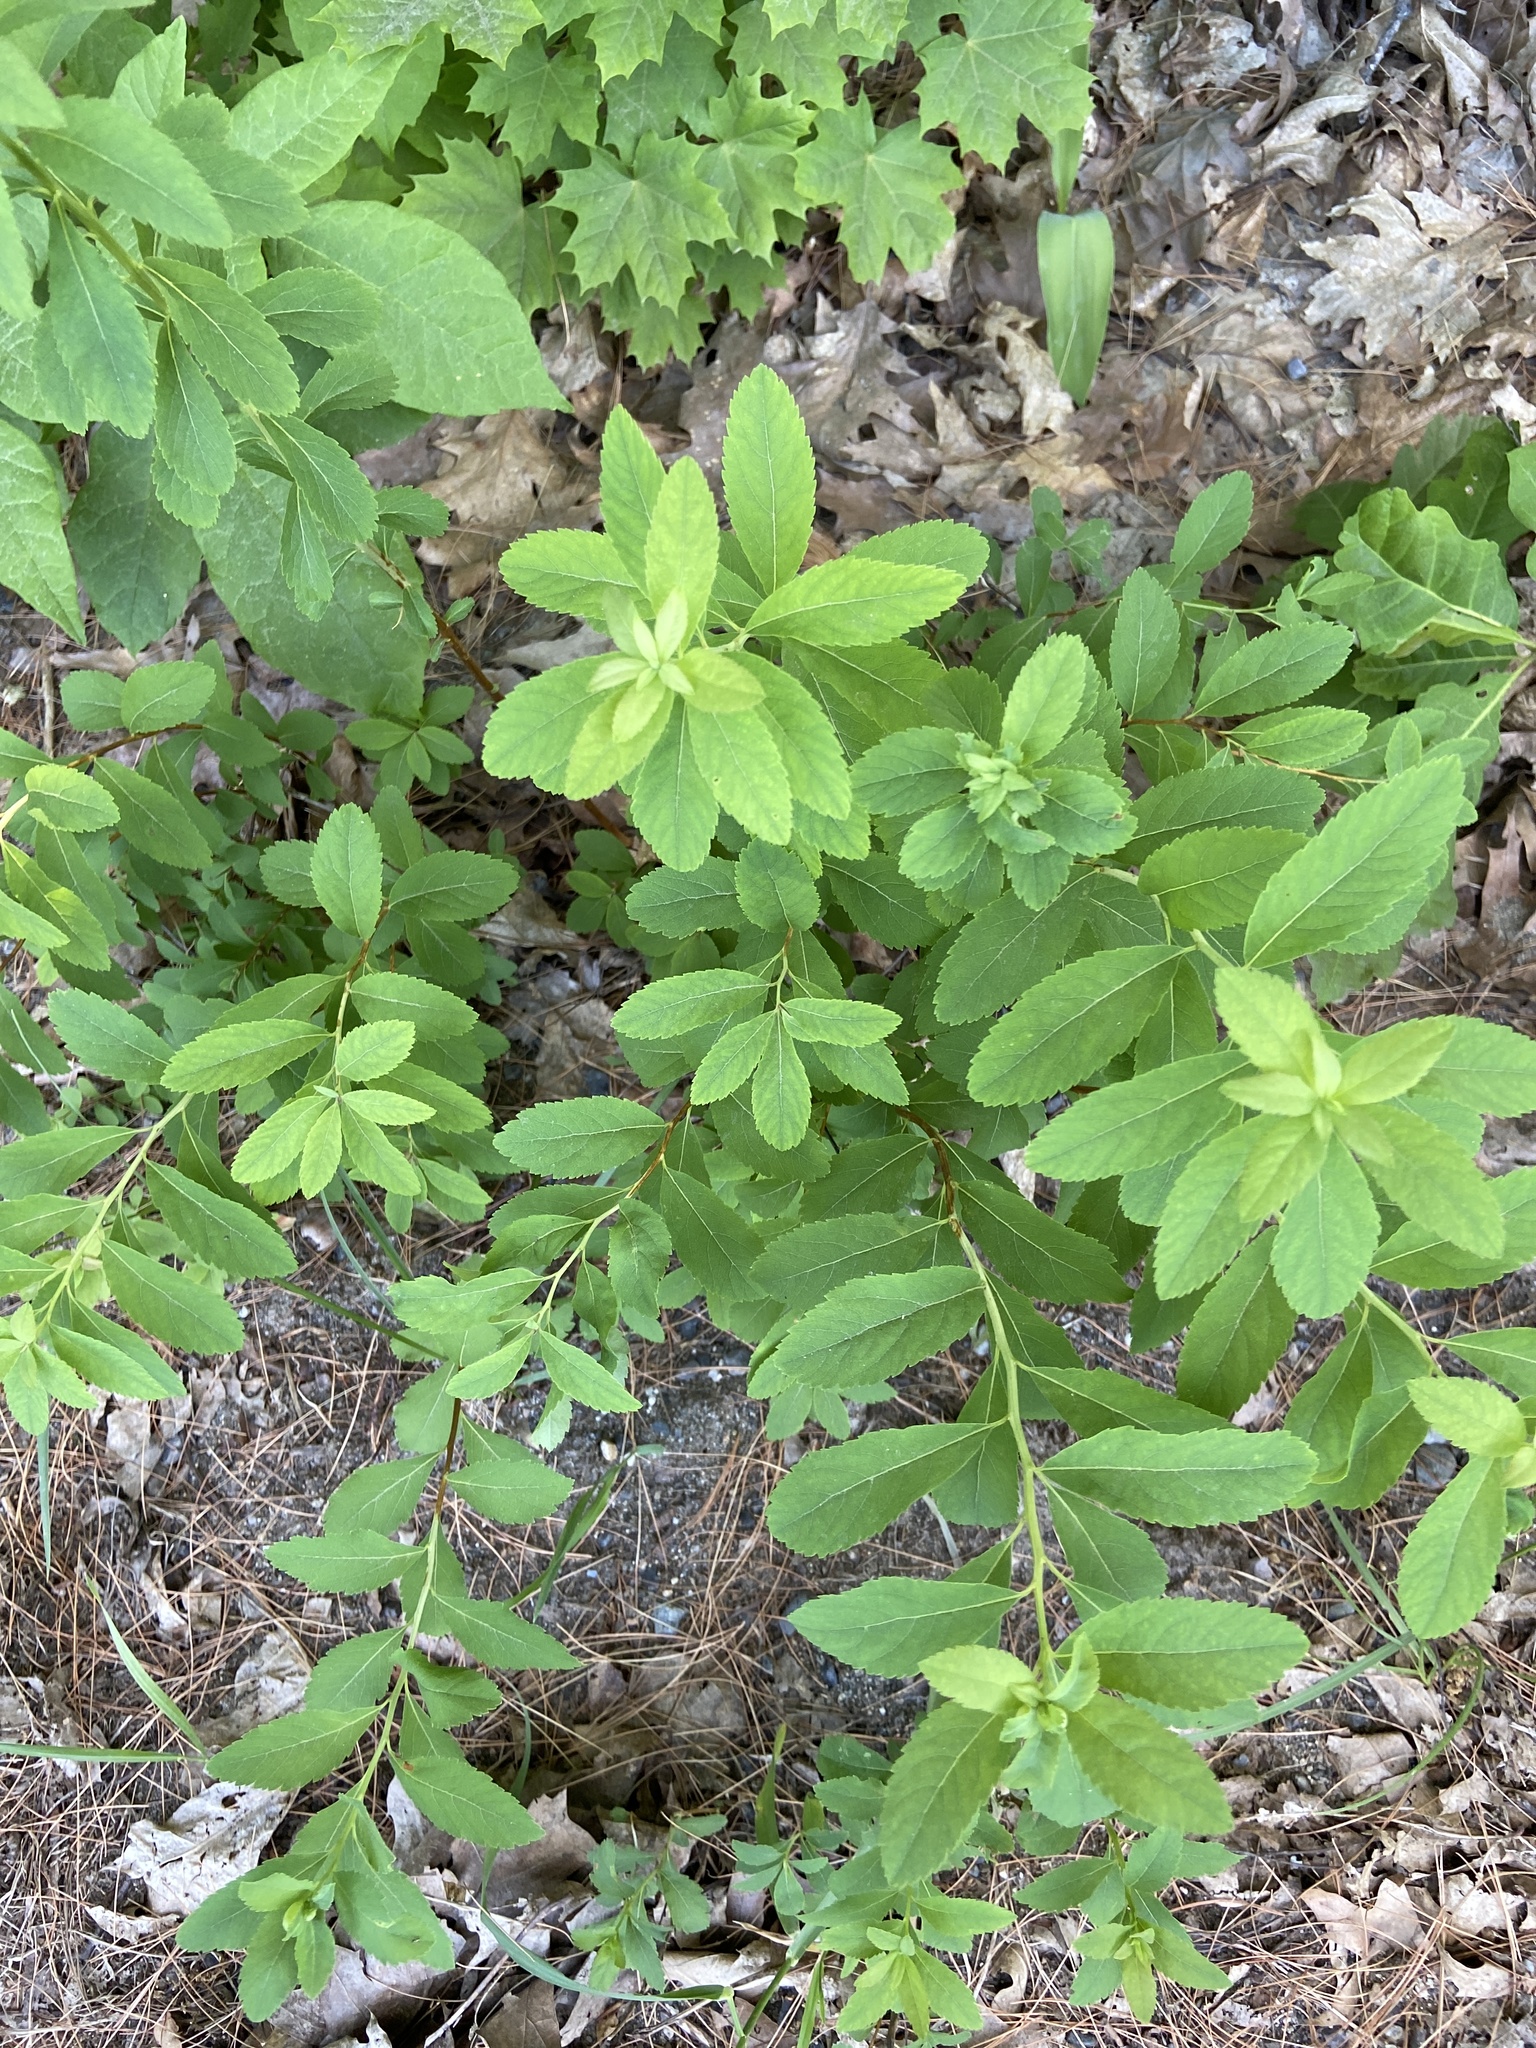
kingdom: Plantae
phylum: Tracheophyta
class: Magnoliopsida
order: Rosales
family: Rosaceae
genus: Spiraea
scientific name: Spiraea alba
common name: Pale bridewort
